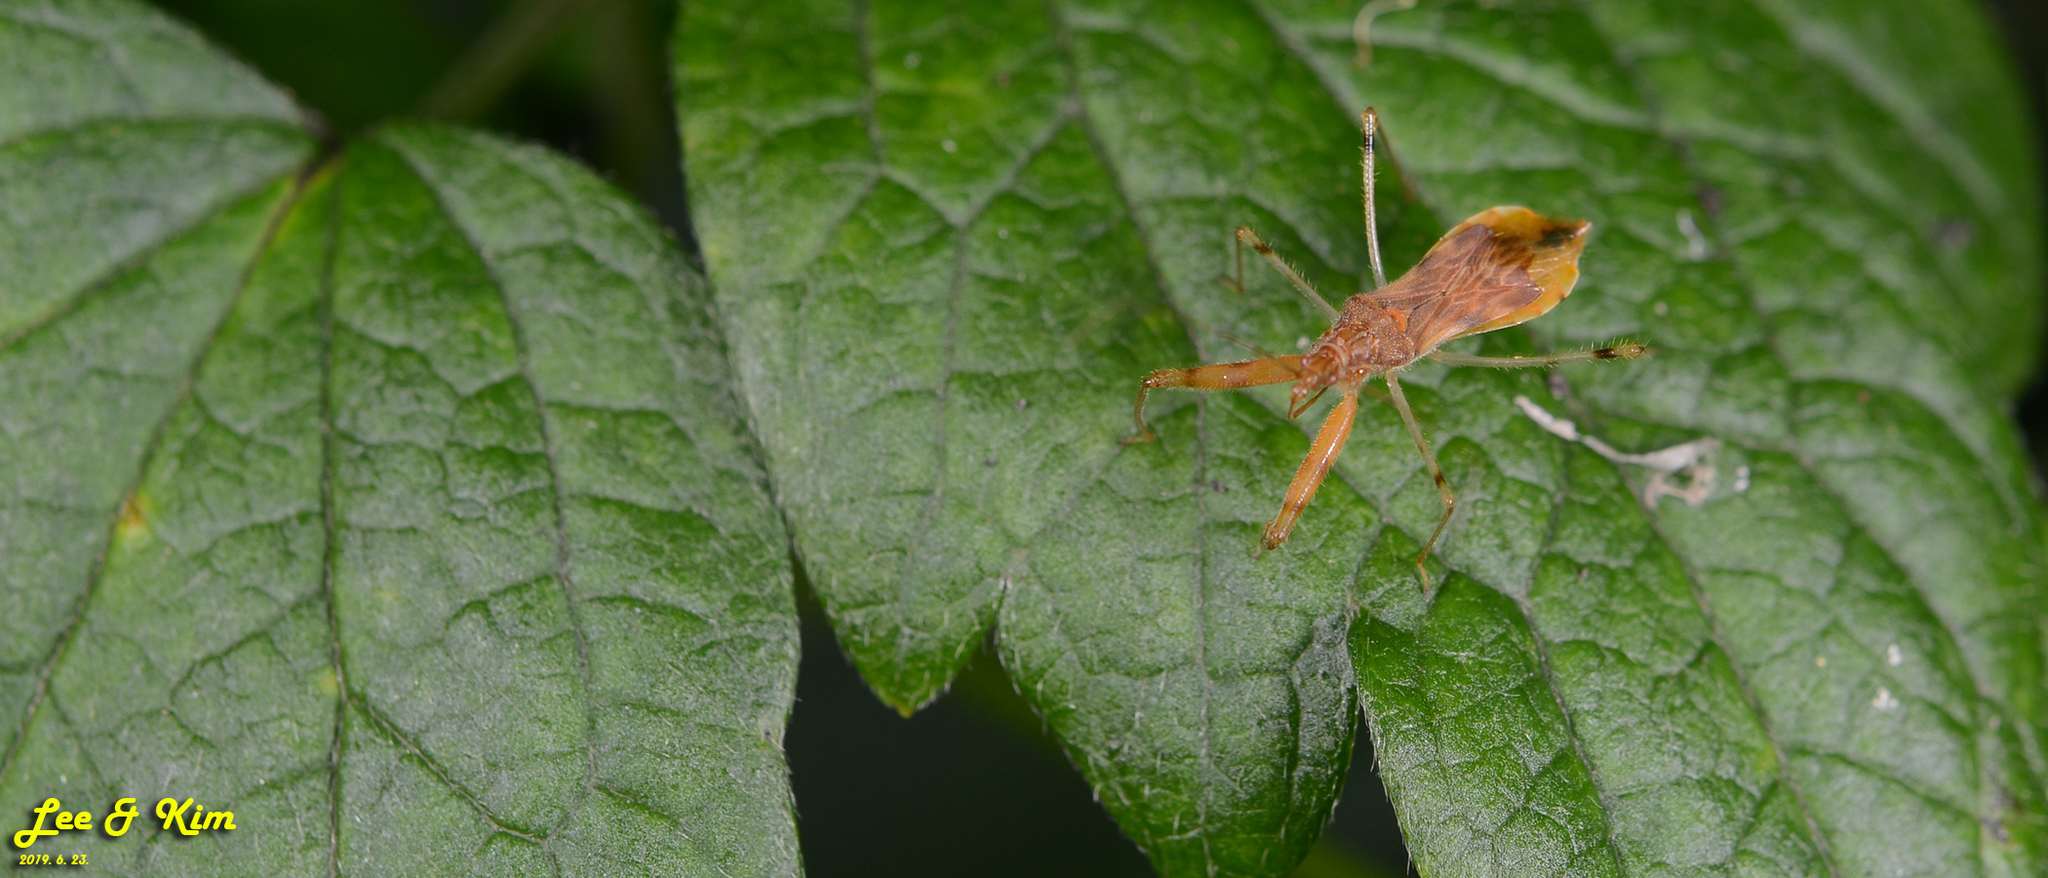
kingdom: Animalia
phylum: Arthropoda
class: Insecta
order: Hemiptera
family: Nabidae
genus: Gorpis
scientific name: Gorpis
